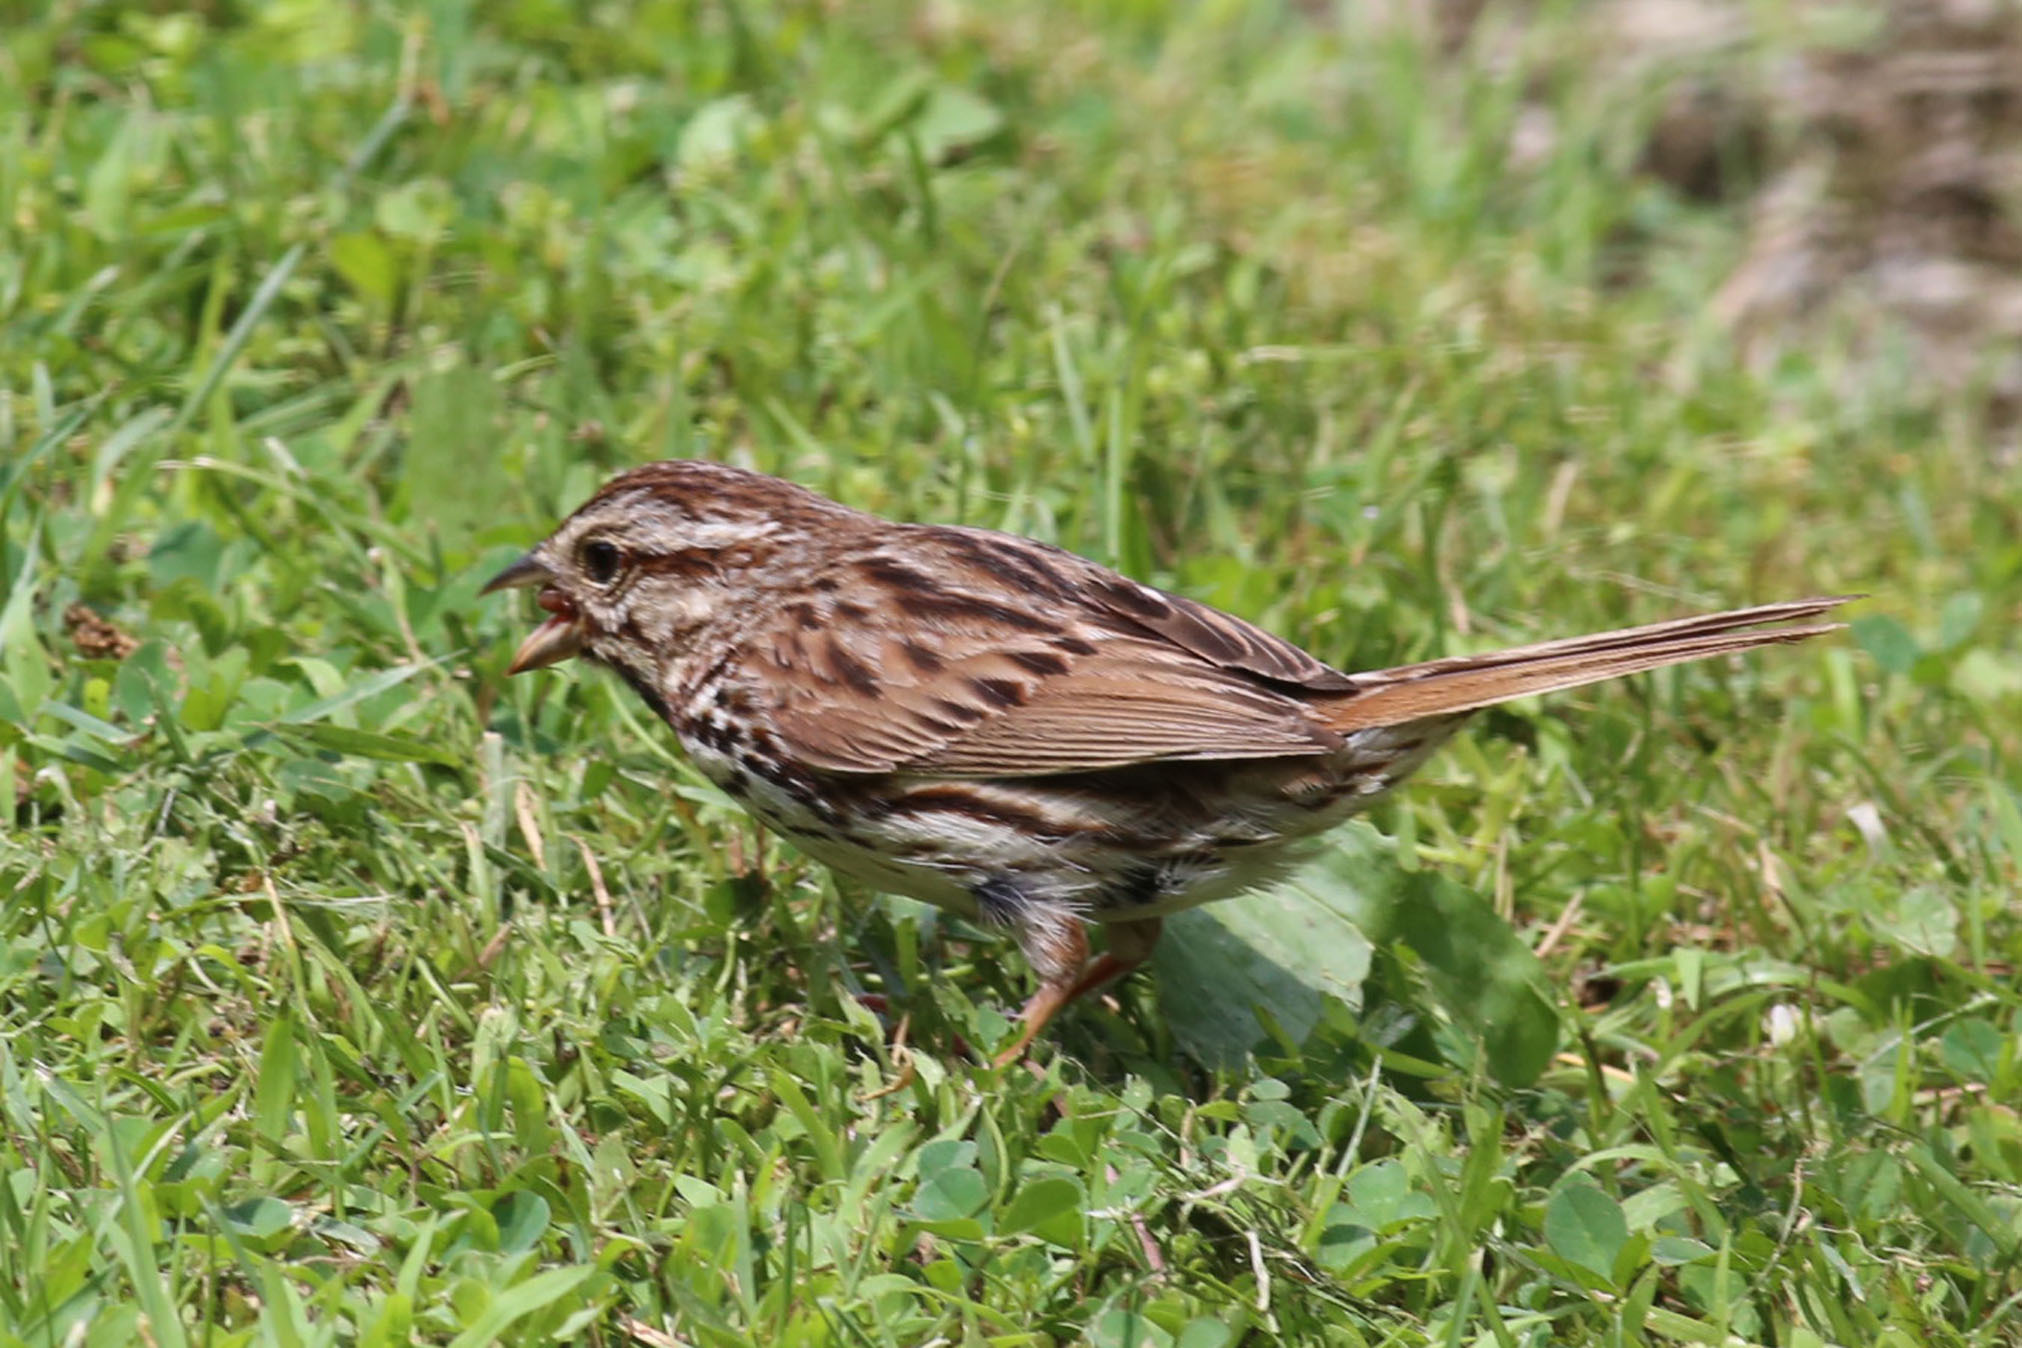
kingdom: Animalia
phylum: Chordata
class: Aves
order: Passeriformes
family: Passerellidae
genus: Melospiza
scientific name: Melospiza melodia
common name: Song sparrow
